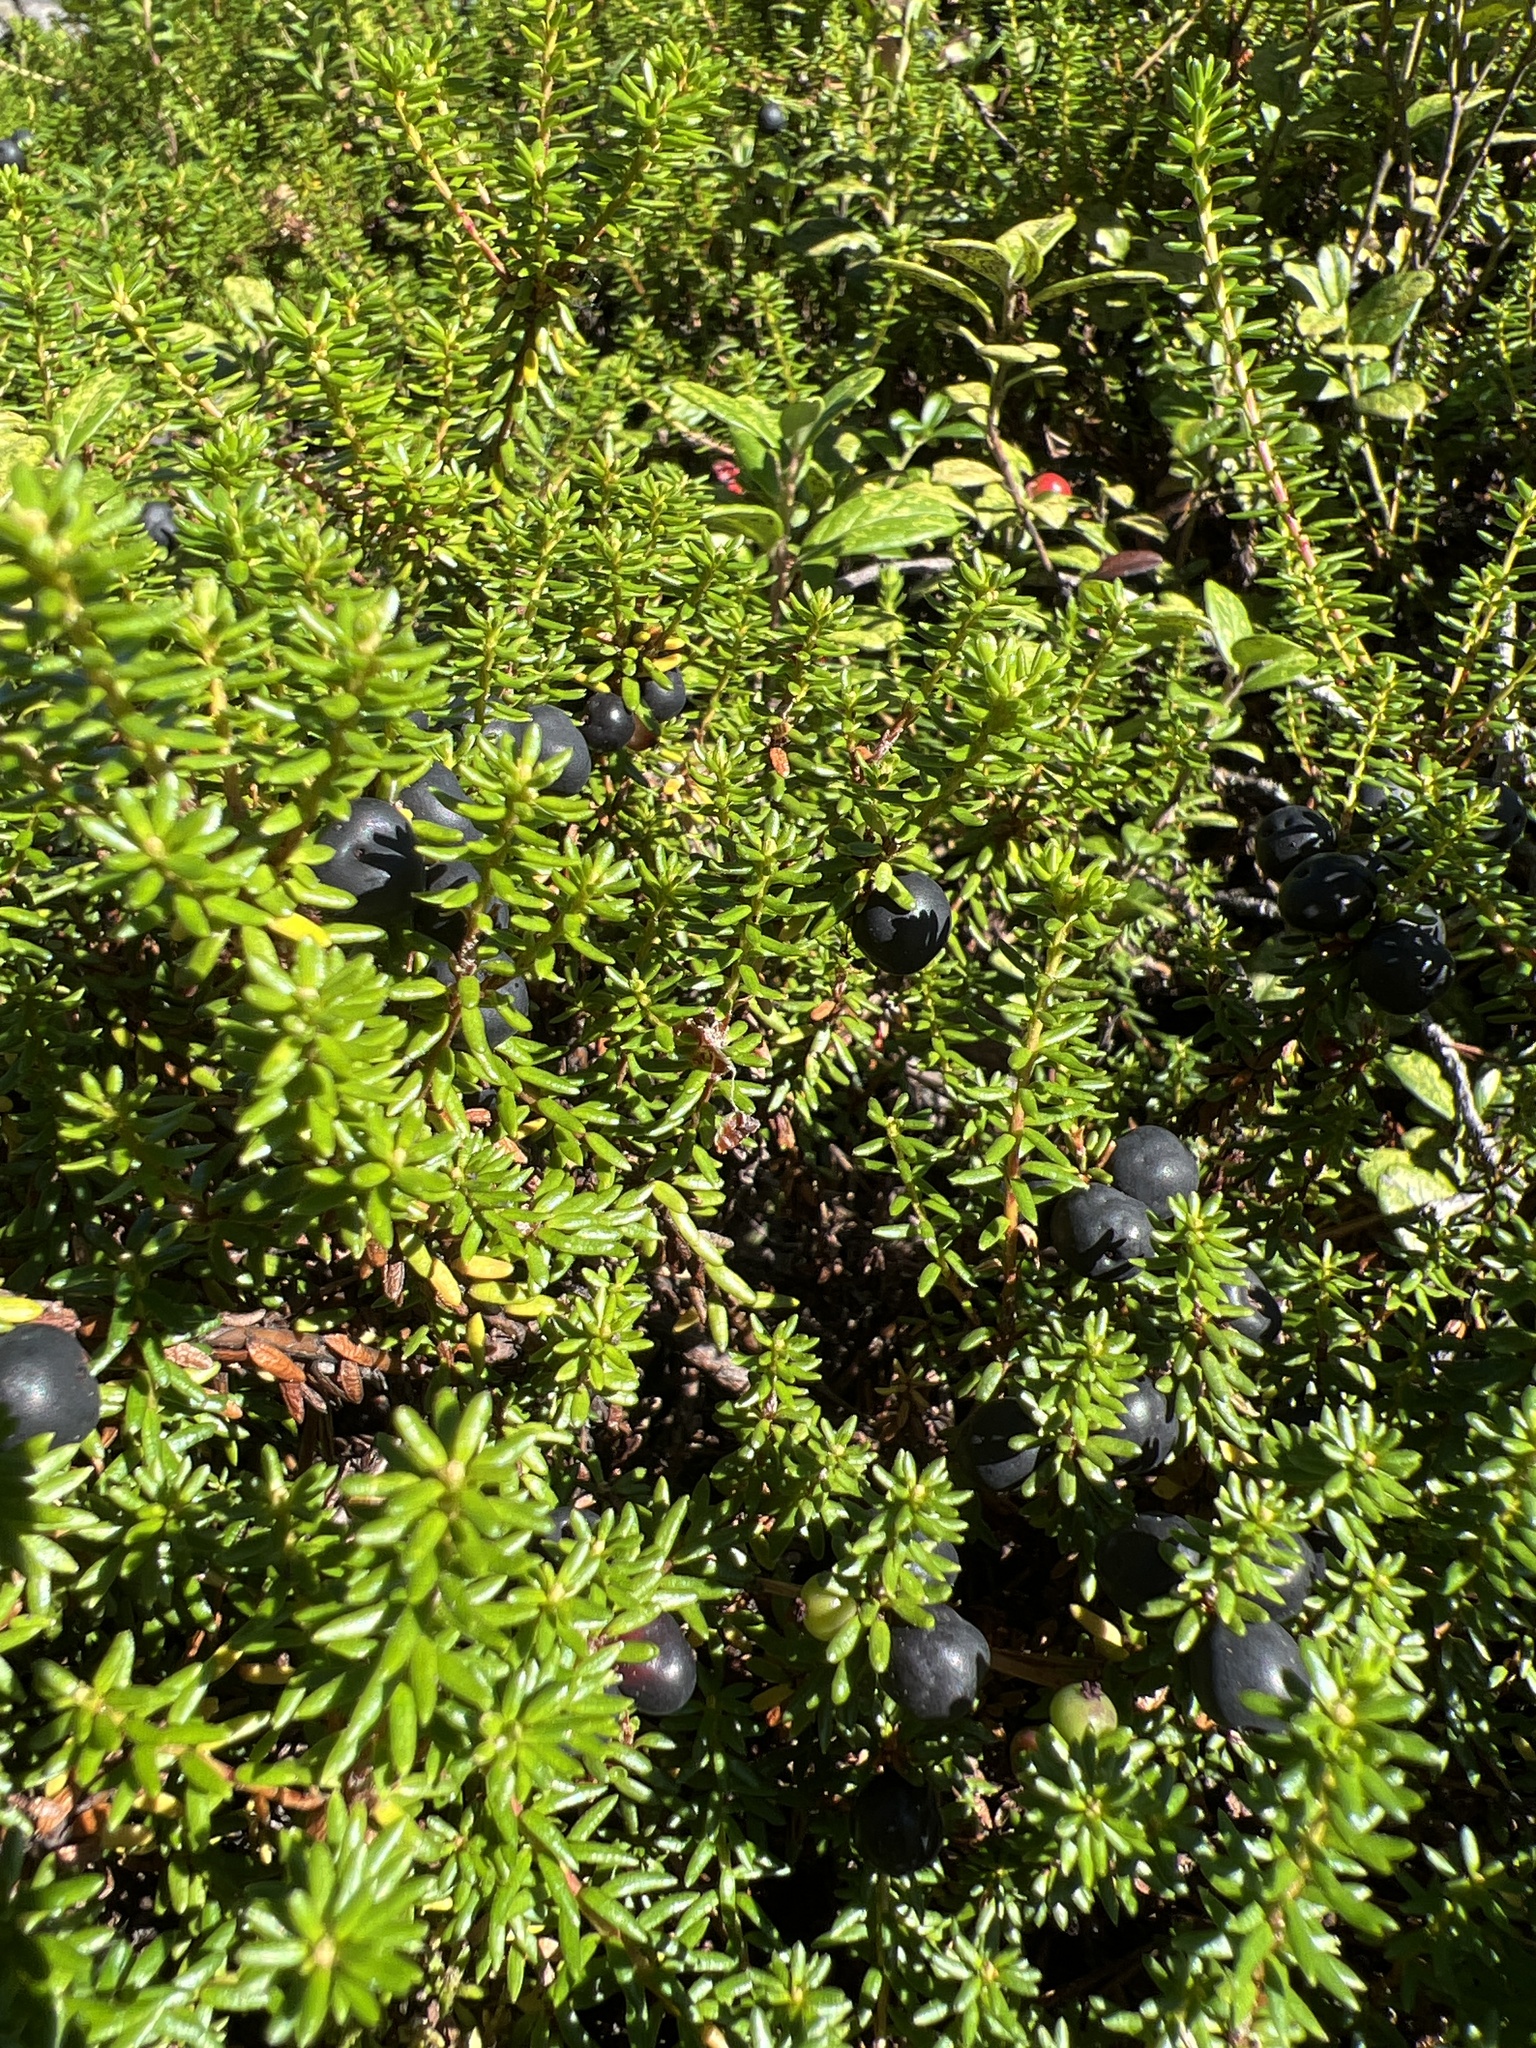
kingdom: Plantae
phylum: Tracheophyta
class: Magnoliopsida
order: Ericales
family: Ericaceae
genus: Empetrum
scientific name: Empetrum nigrum
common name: Black crowberry
